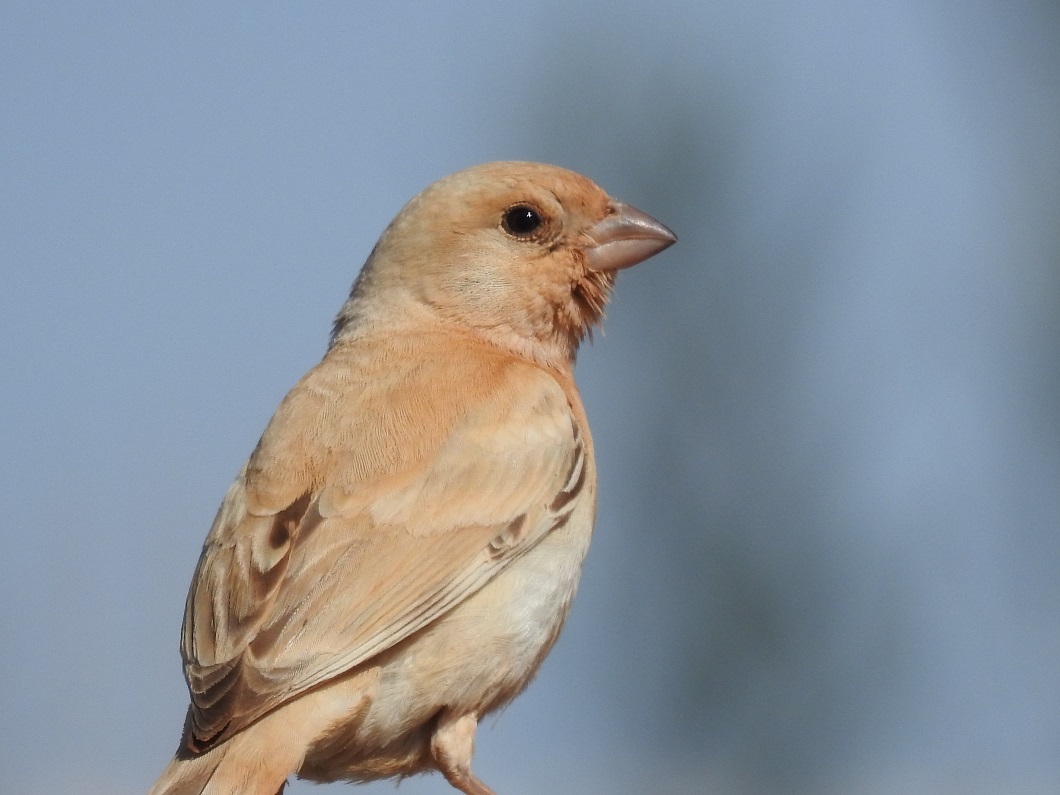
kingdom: Animalia
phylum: Chordata
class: Aves
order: Passeriformes
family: Passeridae
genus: Passer
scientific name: Passer simplex
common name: Desert sparrow
